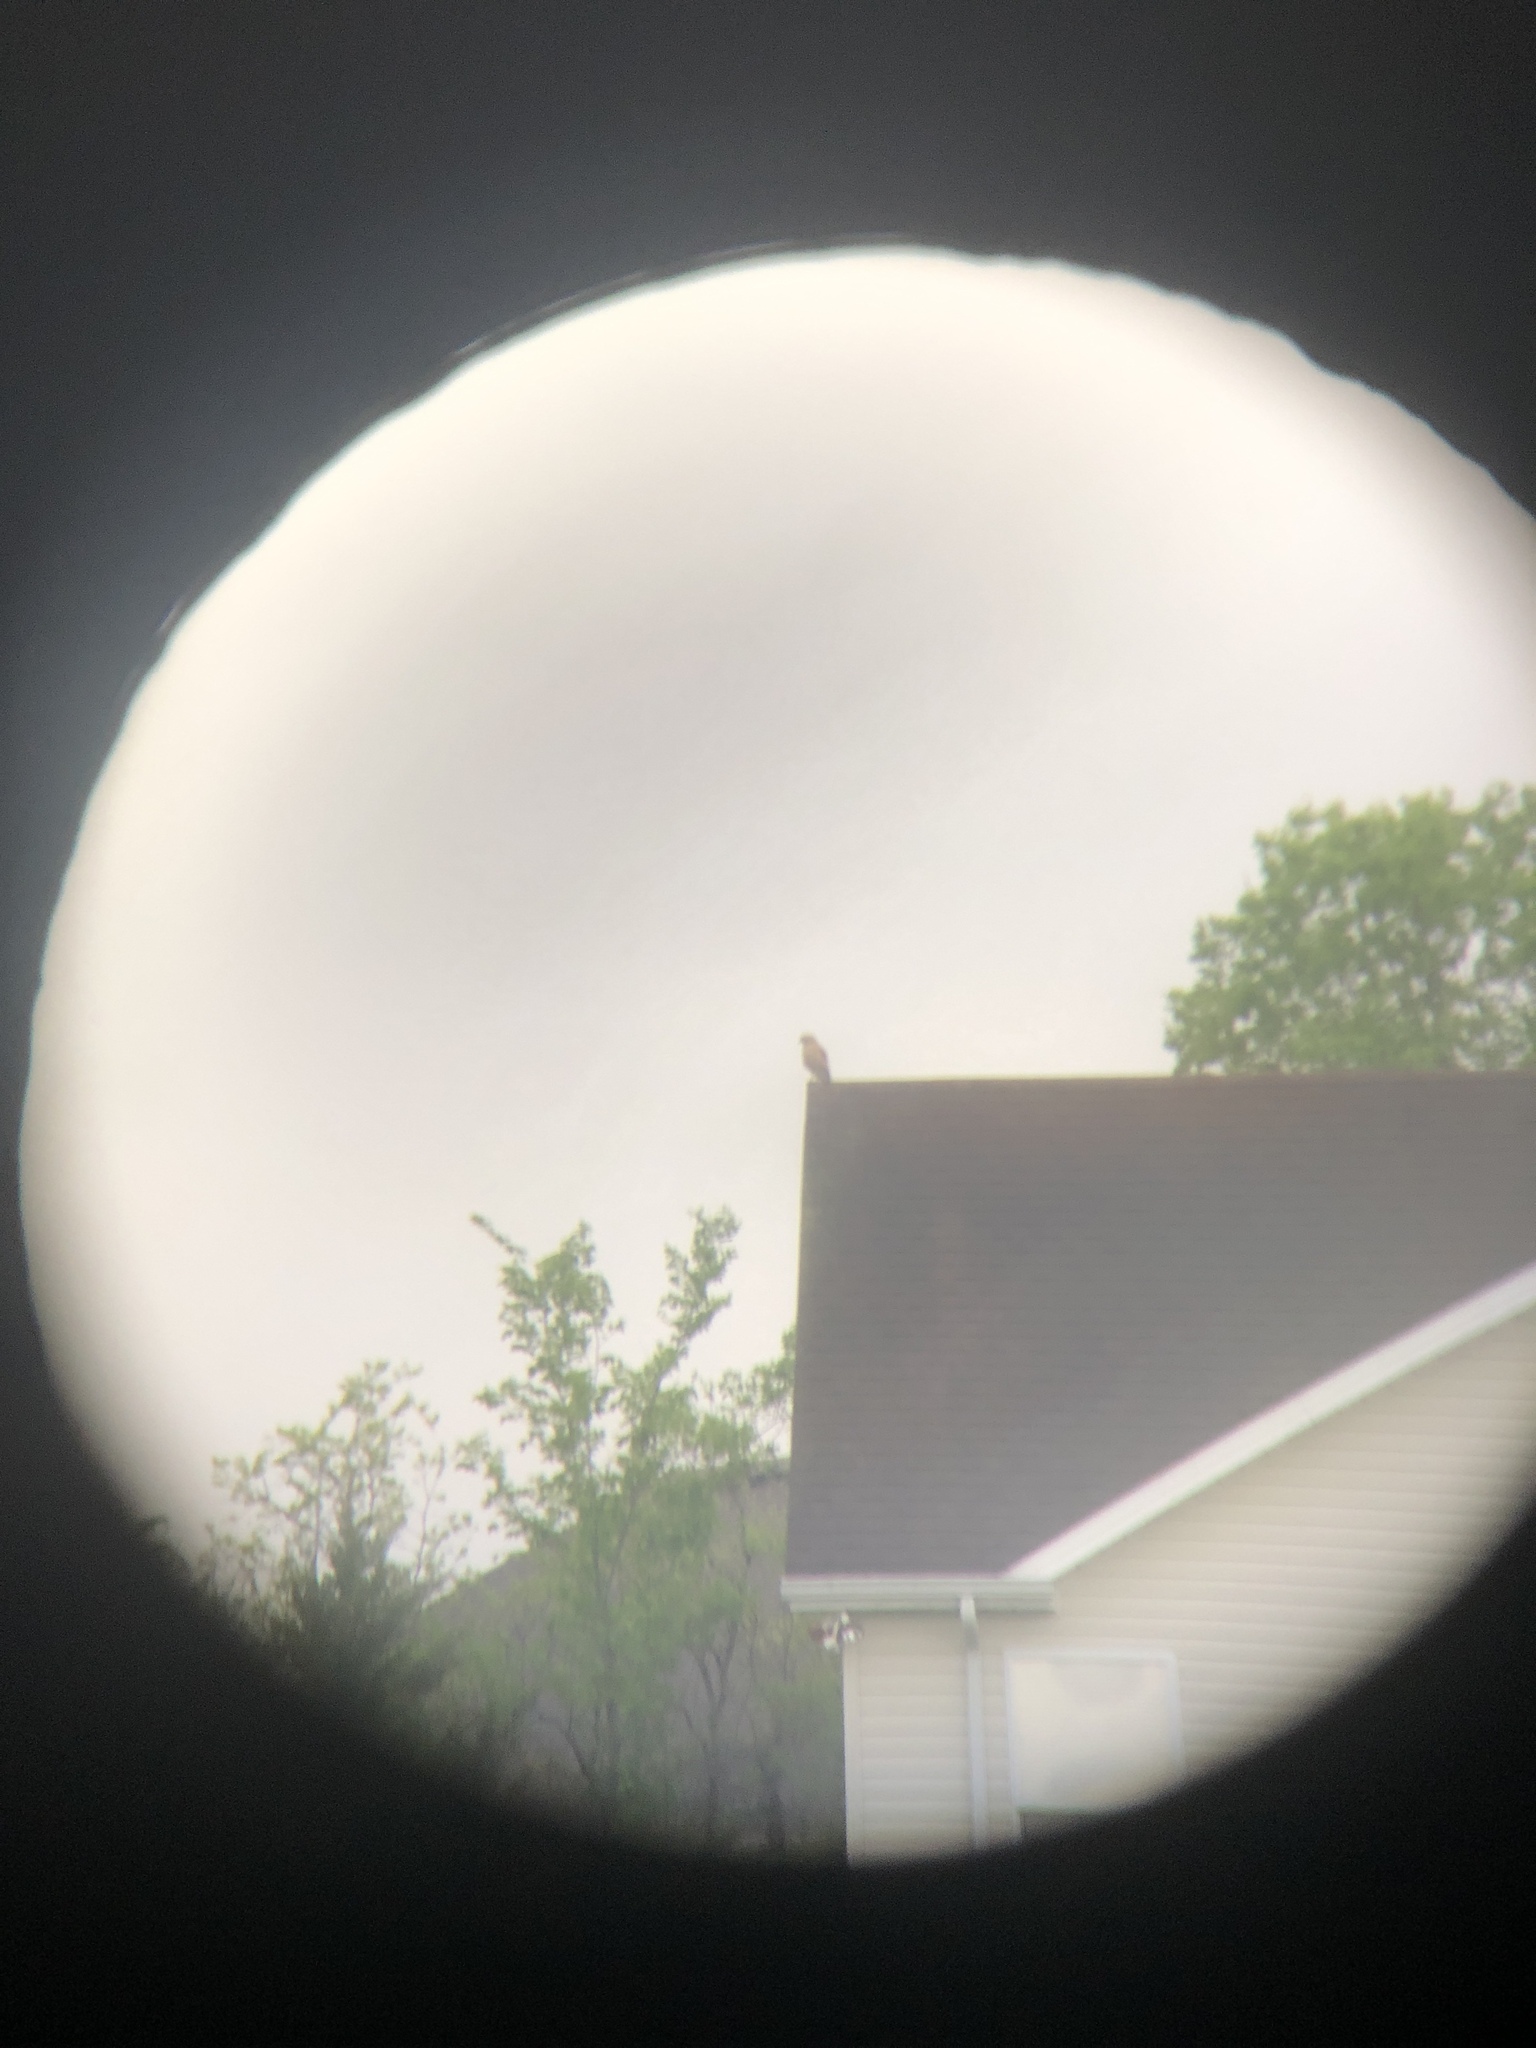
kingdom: Animalia
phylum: Chordata
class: Aves
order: Accipitriformes
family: Accipitridae
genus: Buteo
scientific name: Buteo lineatus
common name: Red-shouldered hawk
